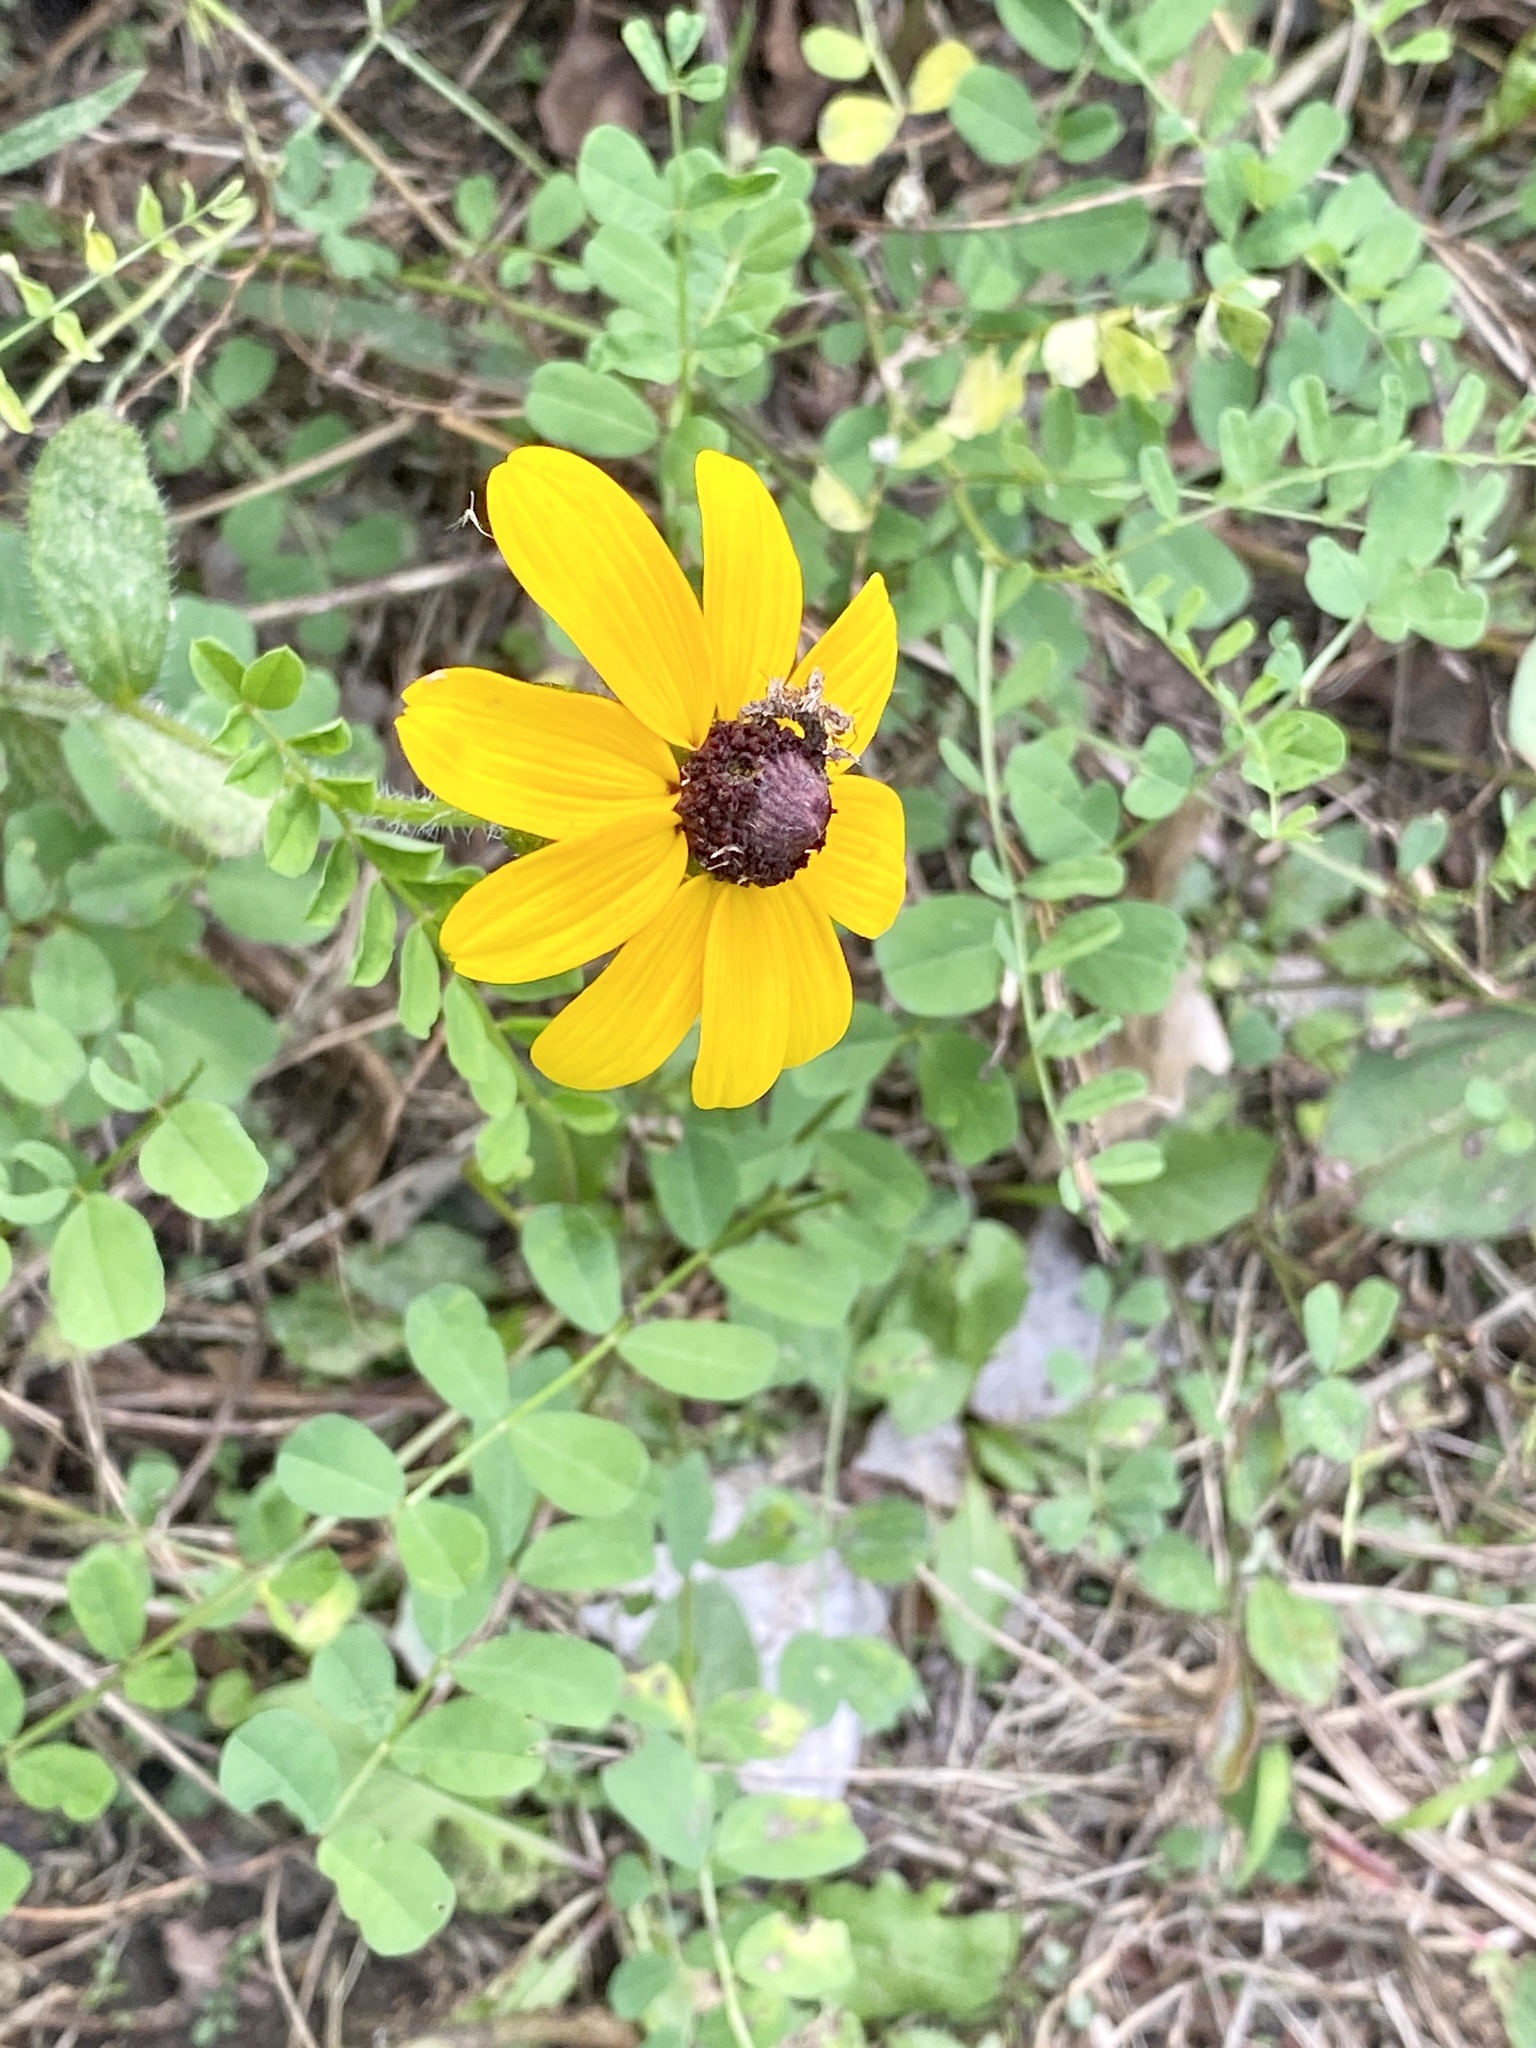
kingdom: Plantae
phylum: Tracheophyta
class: Magnoliopsida
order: Asterales
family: Asteraceae
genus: Rudbeckia
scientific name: Rudbeckia hirta
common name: Black-eyed-susan
